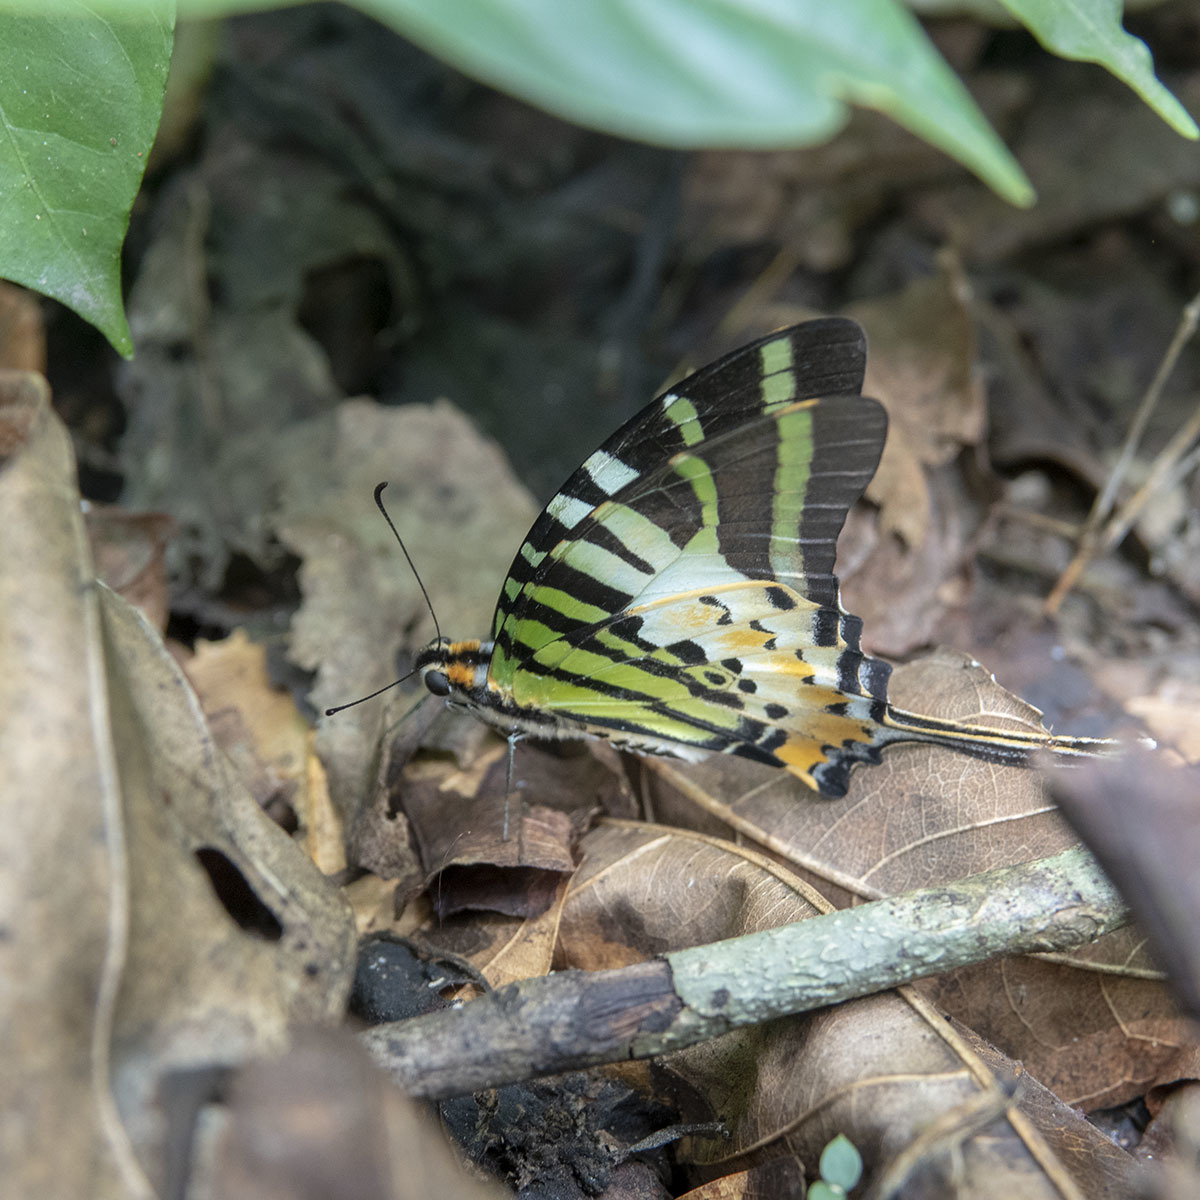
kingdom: Animalia
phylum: Arthropoda
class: Insecta
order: Lepidoptera
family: Papilionidae
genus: Graphium
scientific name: Graphium antiphates
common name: Fivebar swordtail
